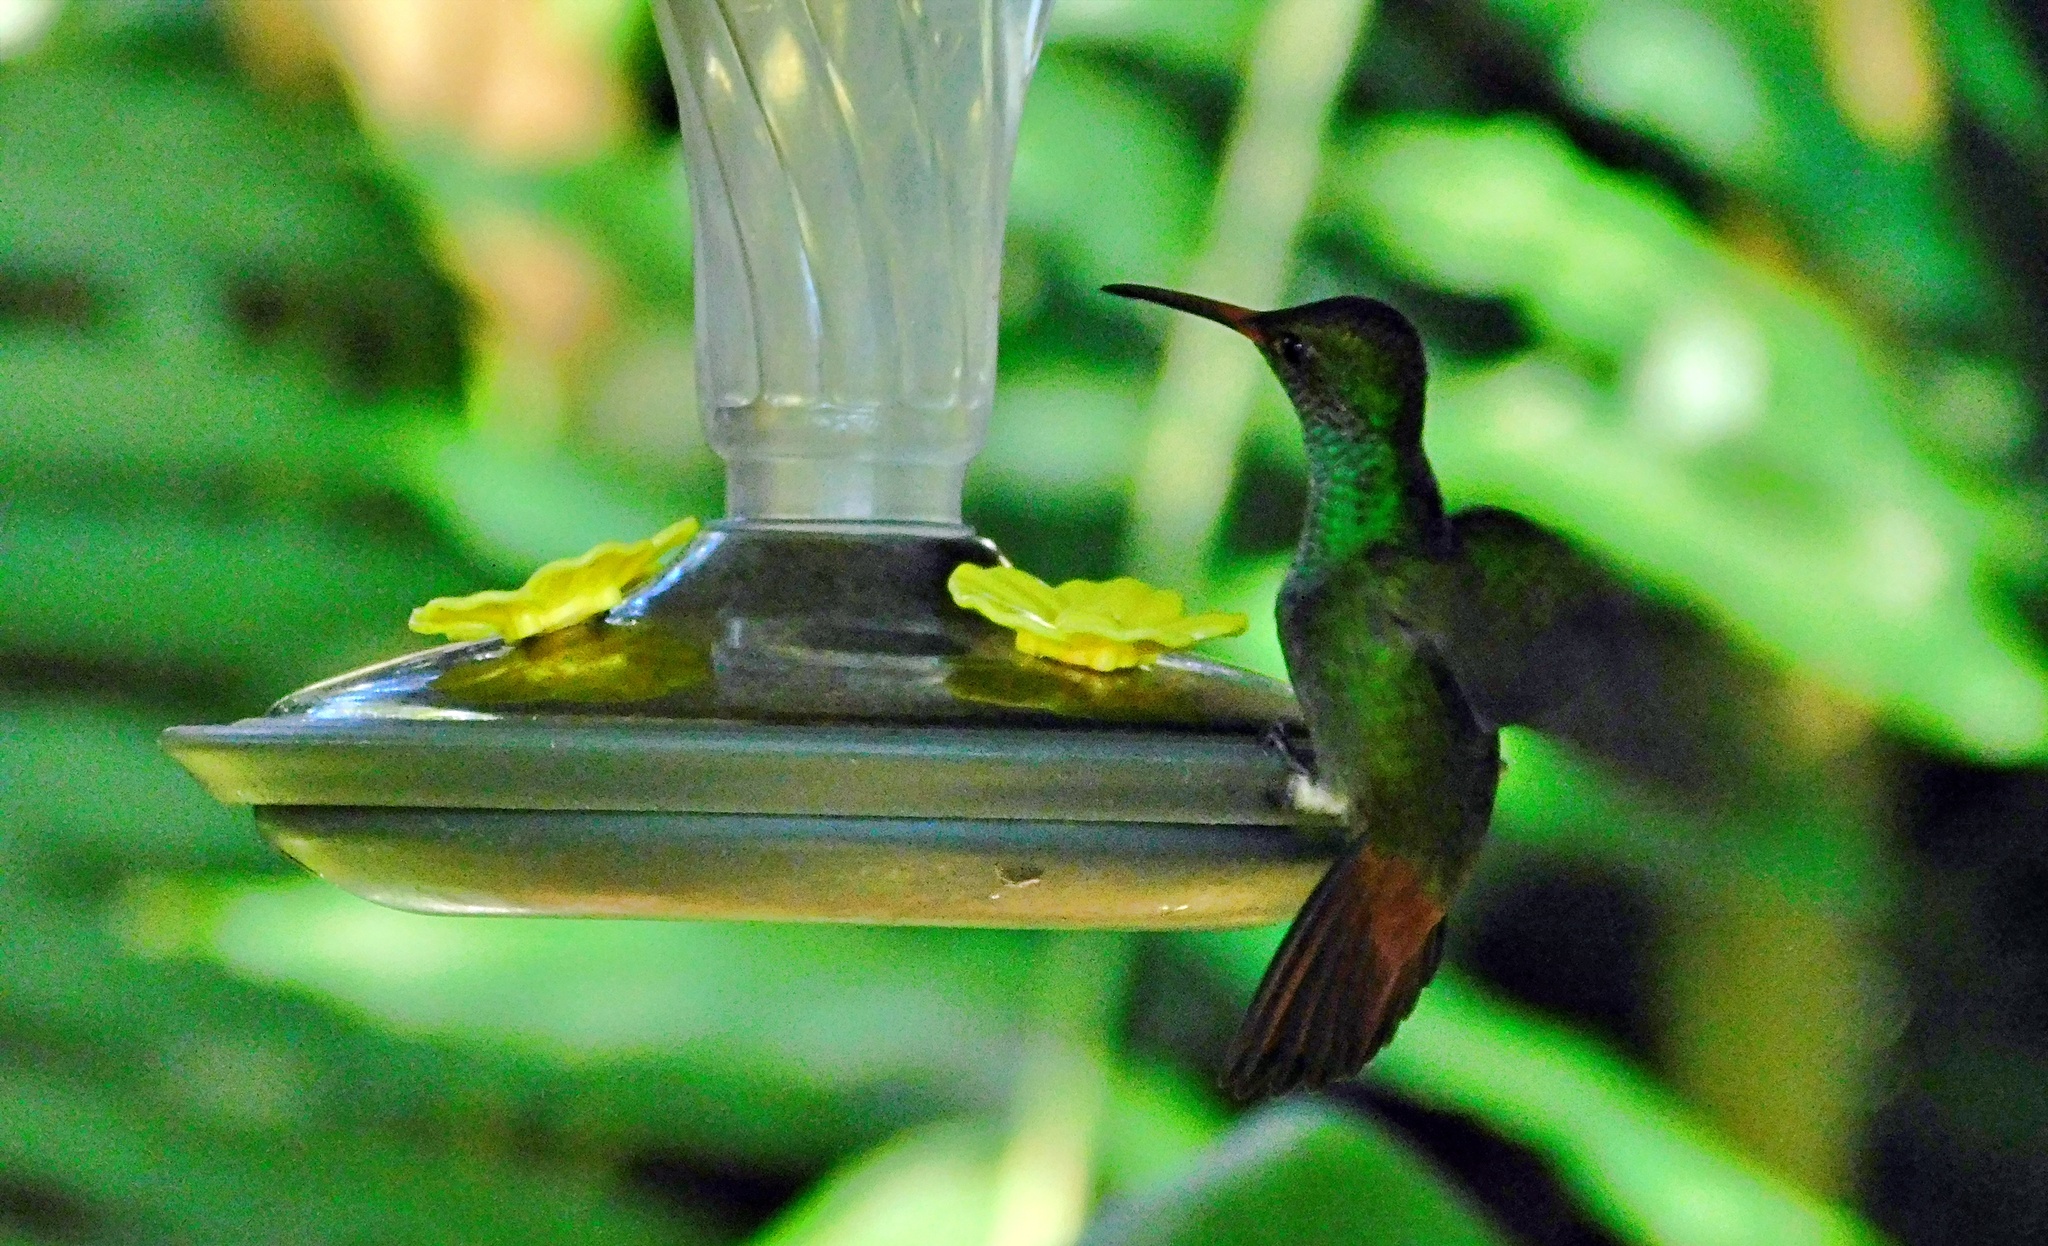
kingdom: Animalia
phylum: Chordata
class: Aves
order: Apodiformes
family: Trochilidae
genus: Amazilia
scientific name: Amazilia tzacatl
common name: Rufous-tailed hummingbird
